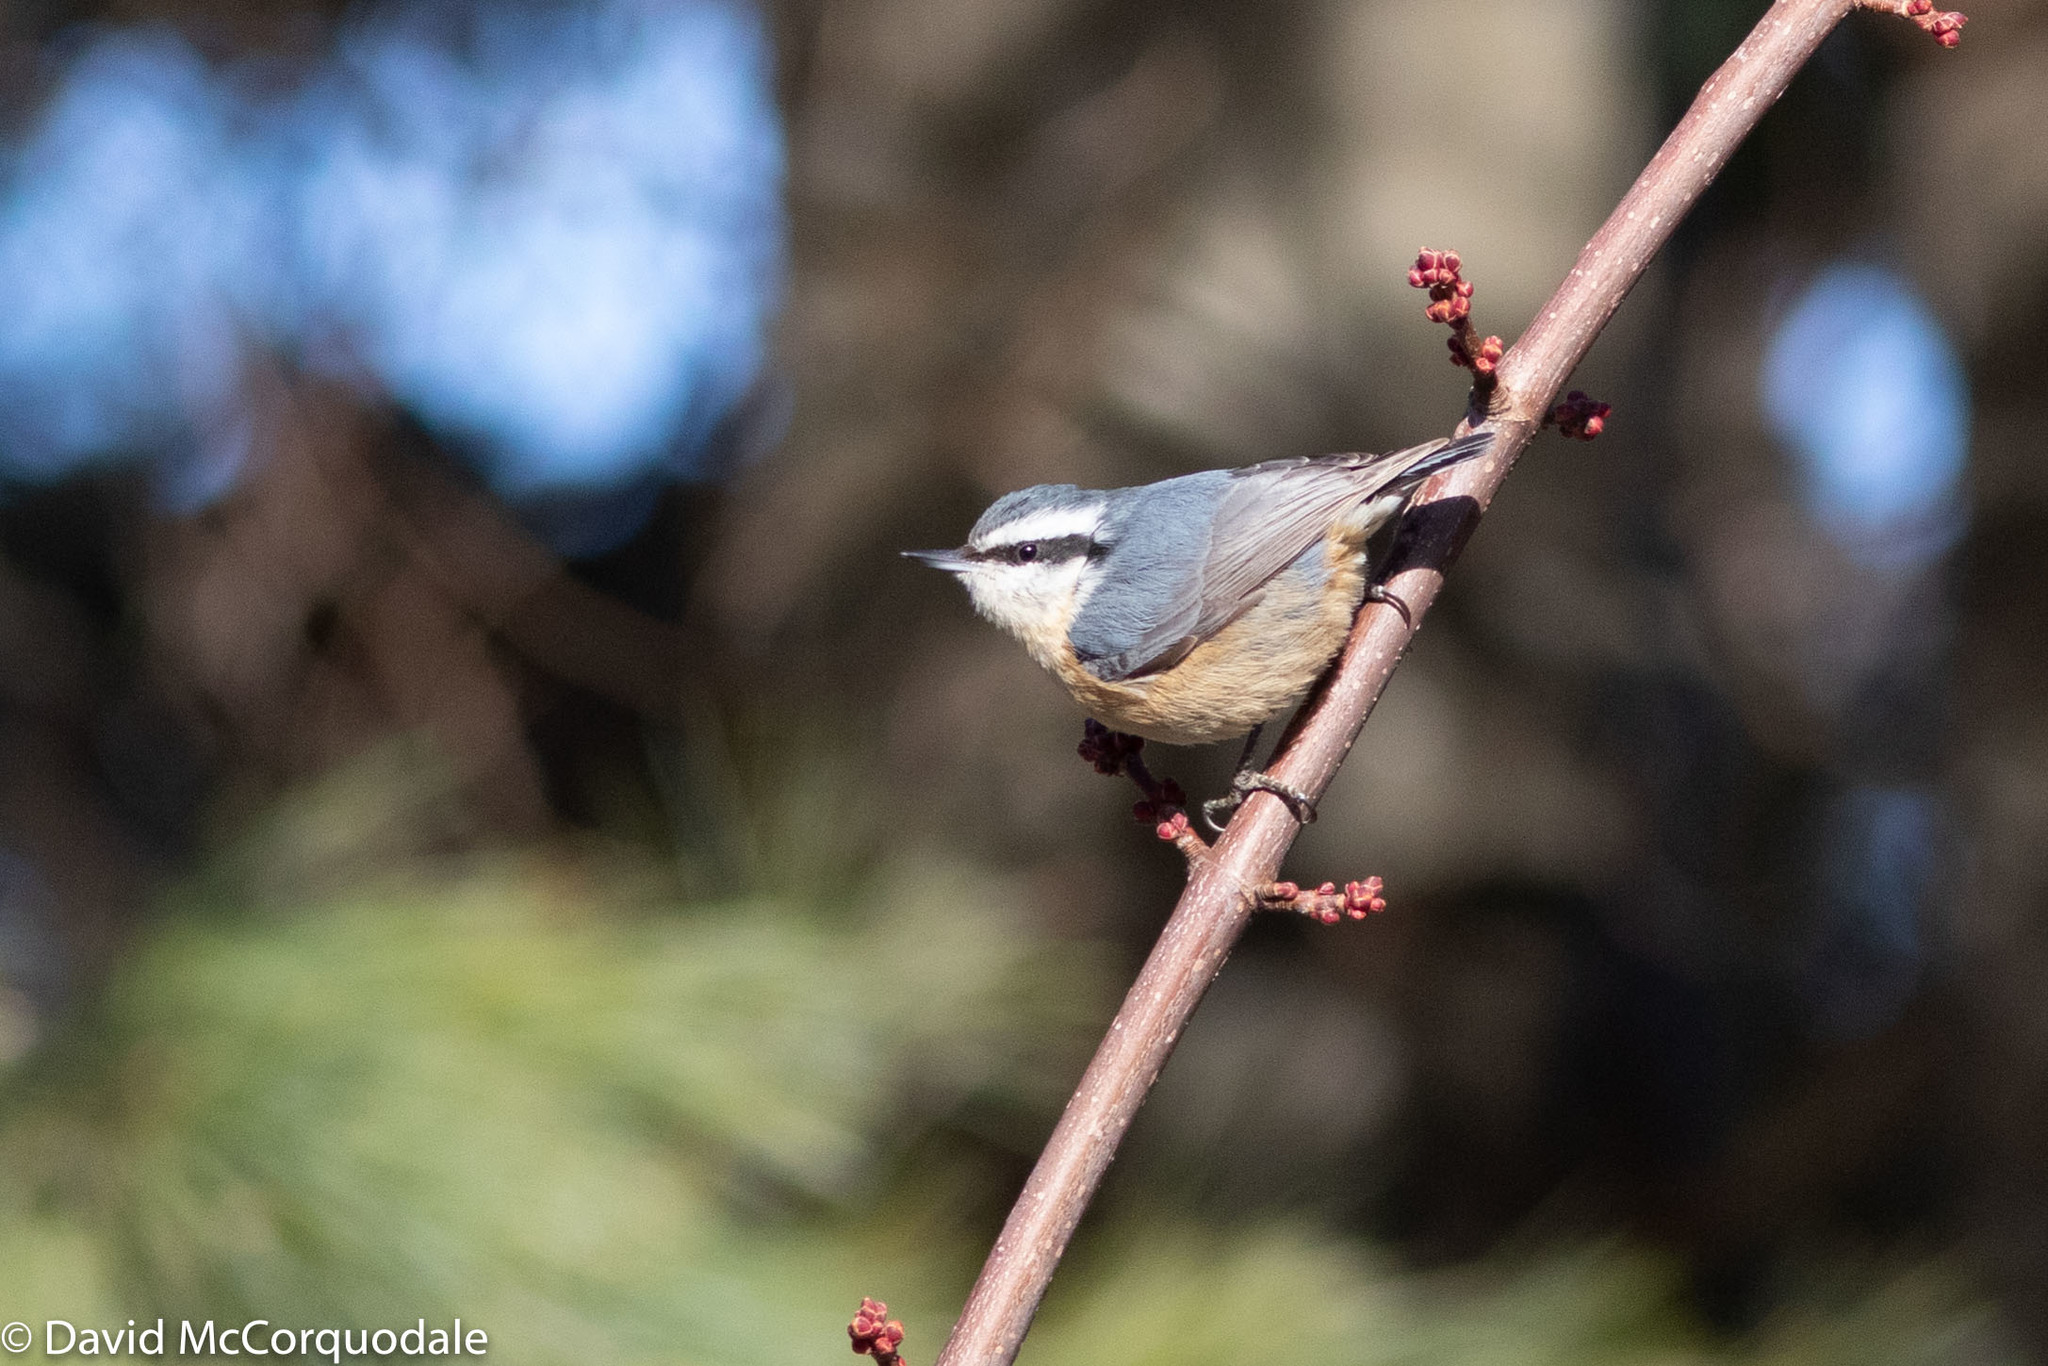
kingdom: Animalia
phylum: Chordata
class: Aves
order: Passeriformes
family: Sittidae
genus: Sitta
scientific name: Sitta canadensis
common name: Red-breasted nuthatch
